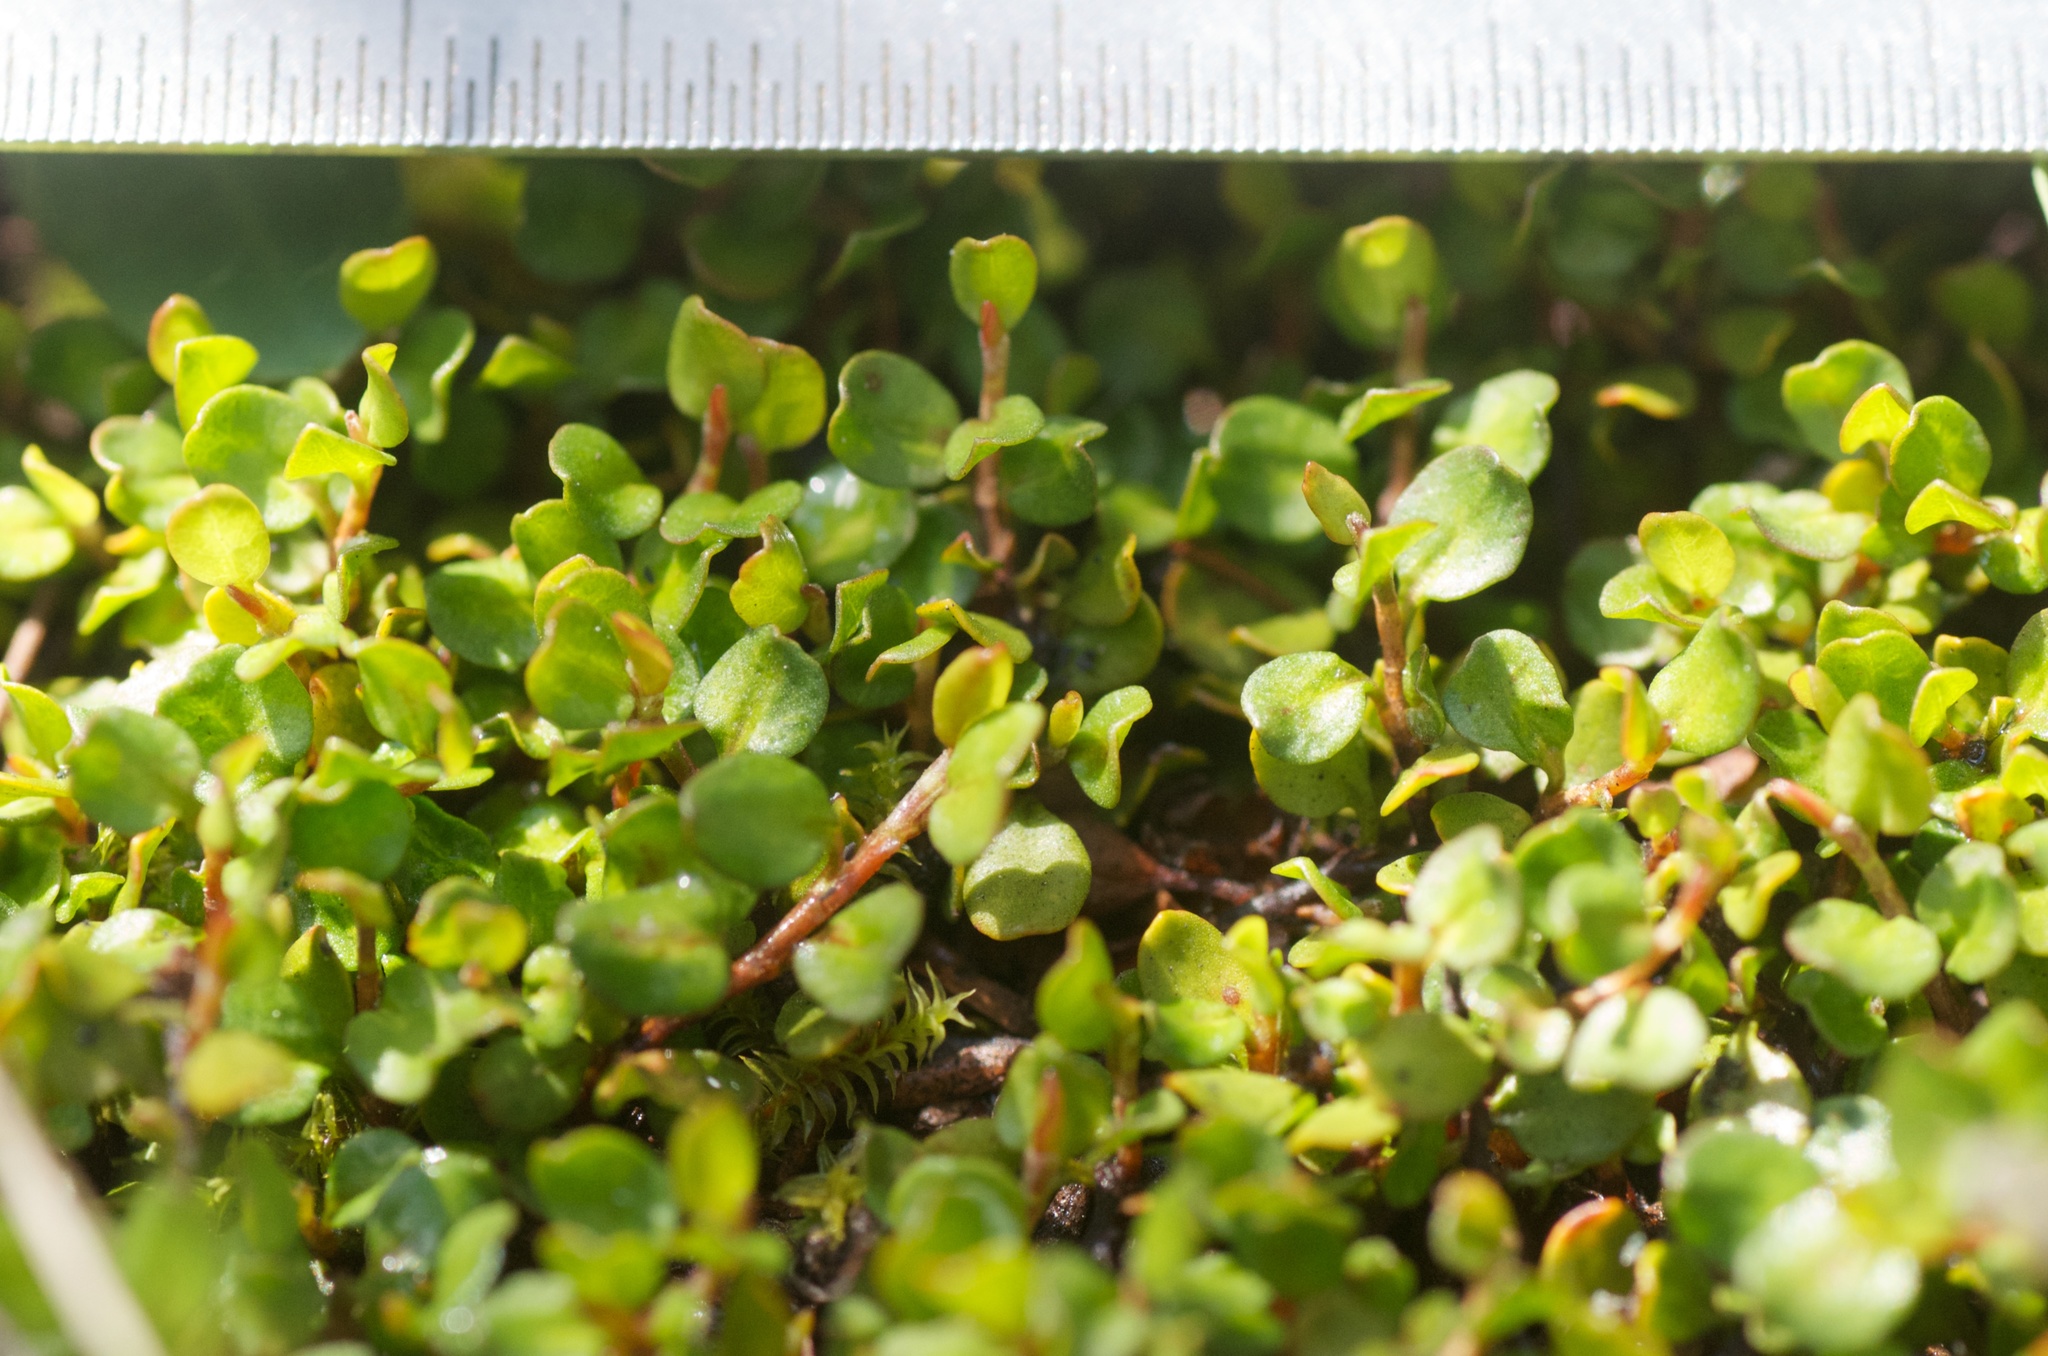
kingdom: Plantae
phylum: Tracheophyta
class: Magnoliopsida
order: Caryophyllales
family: Polygonaceae
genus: Muehlenbeckia
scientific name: Muehlenbeckia axillaris
